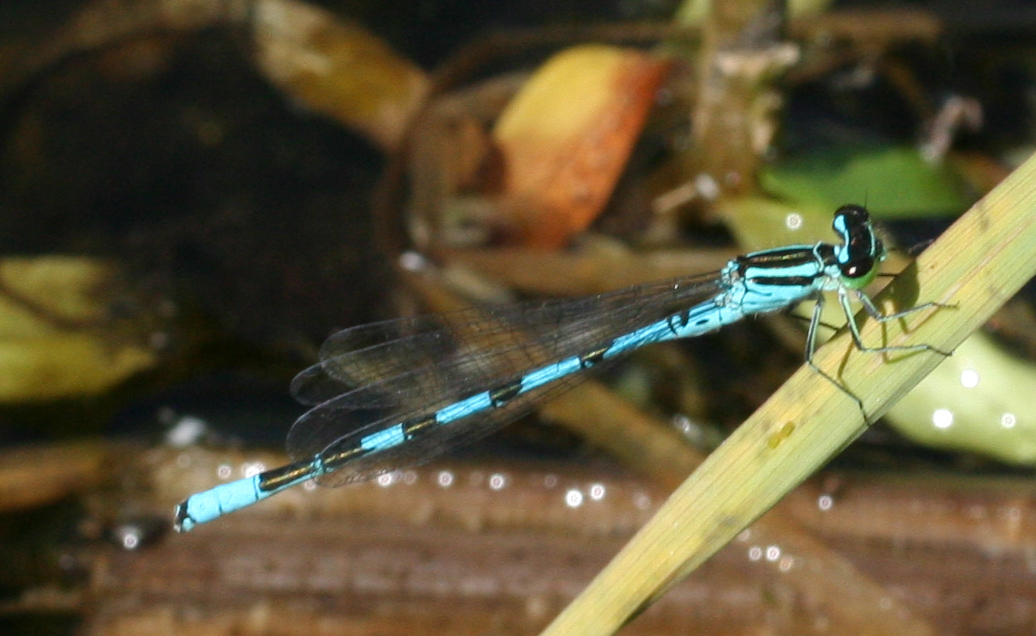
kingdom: Animalia
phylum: Arthropoda
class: Insecta
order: Odonata
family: Coenagrionidae
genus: Coenagrion
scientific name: Coenagrion hastulatum
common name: Spearhead bluet
